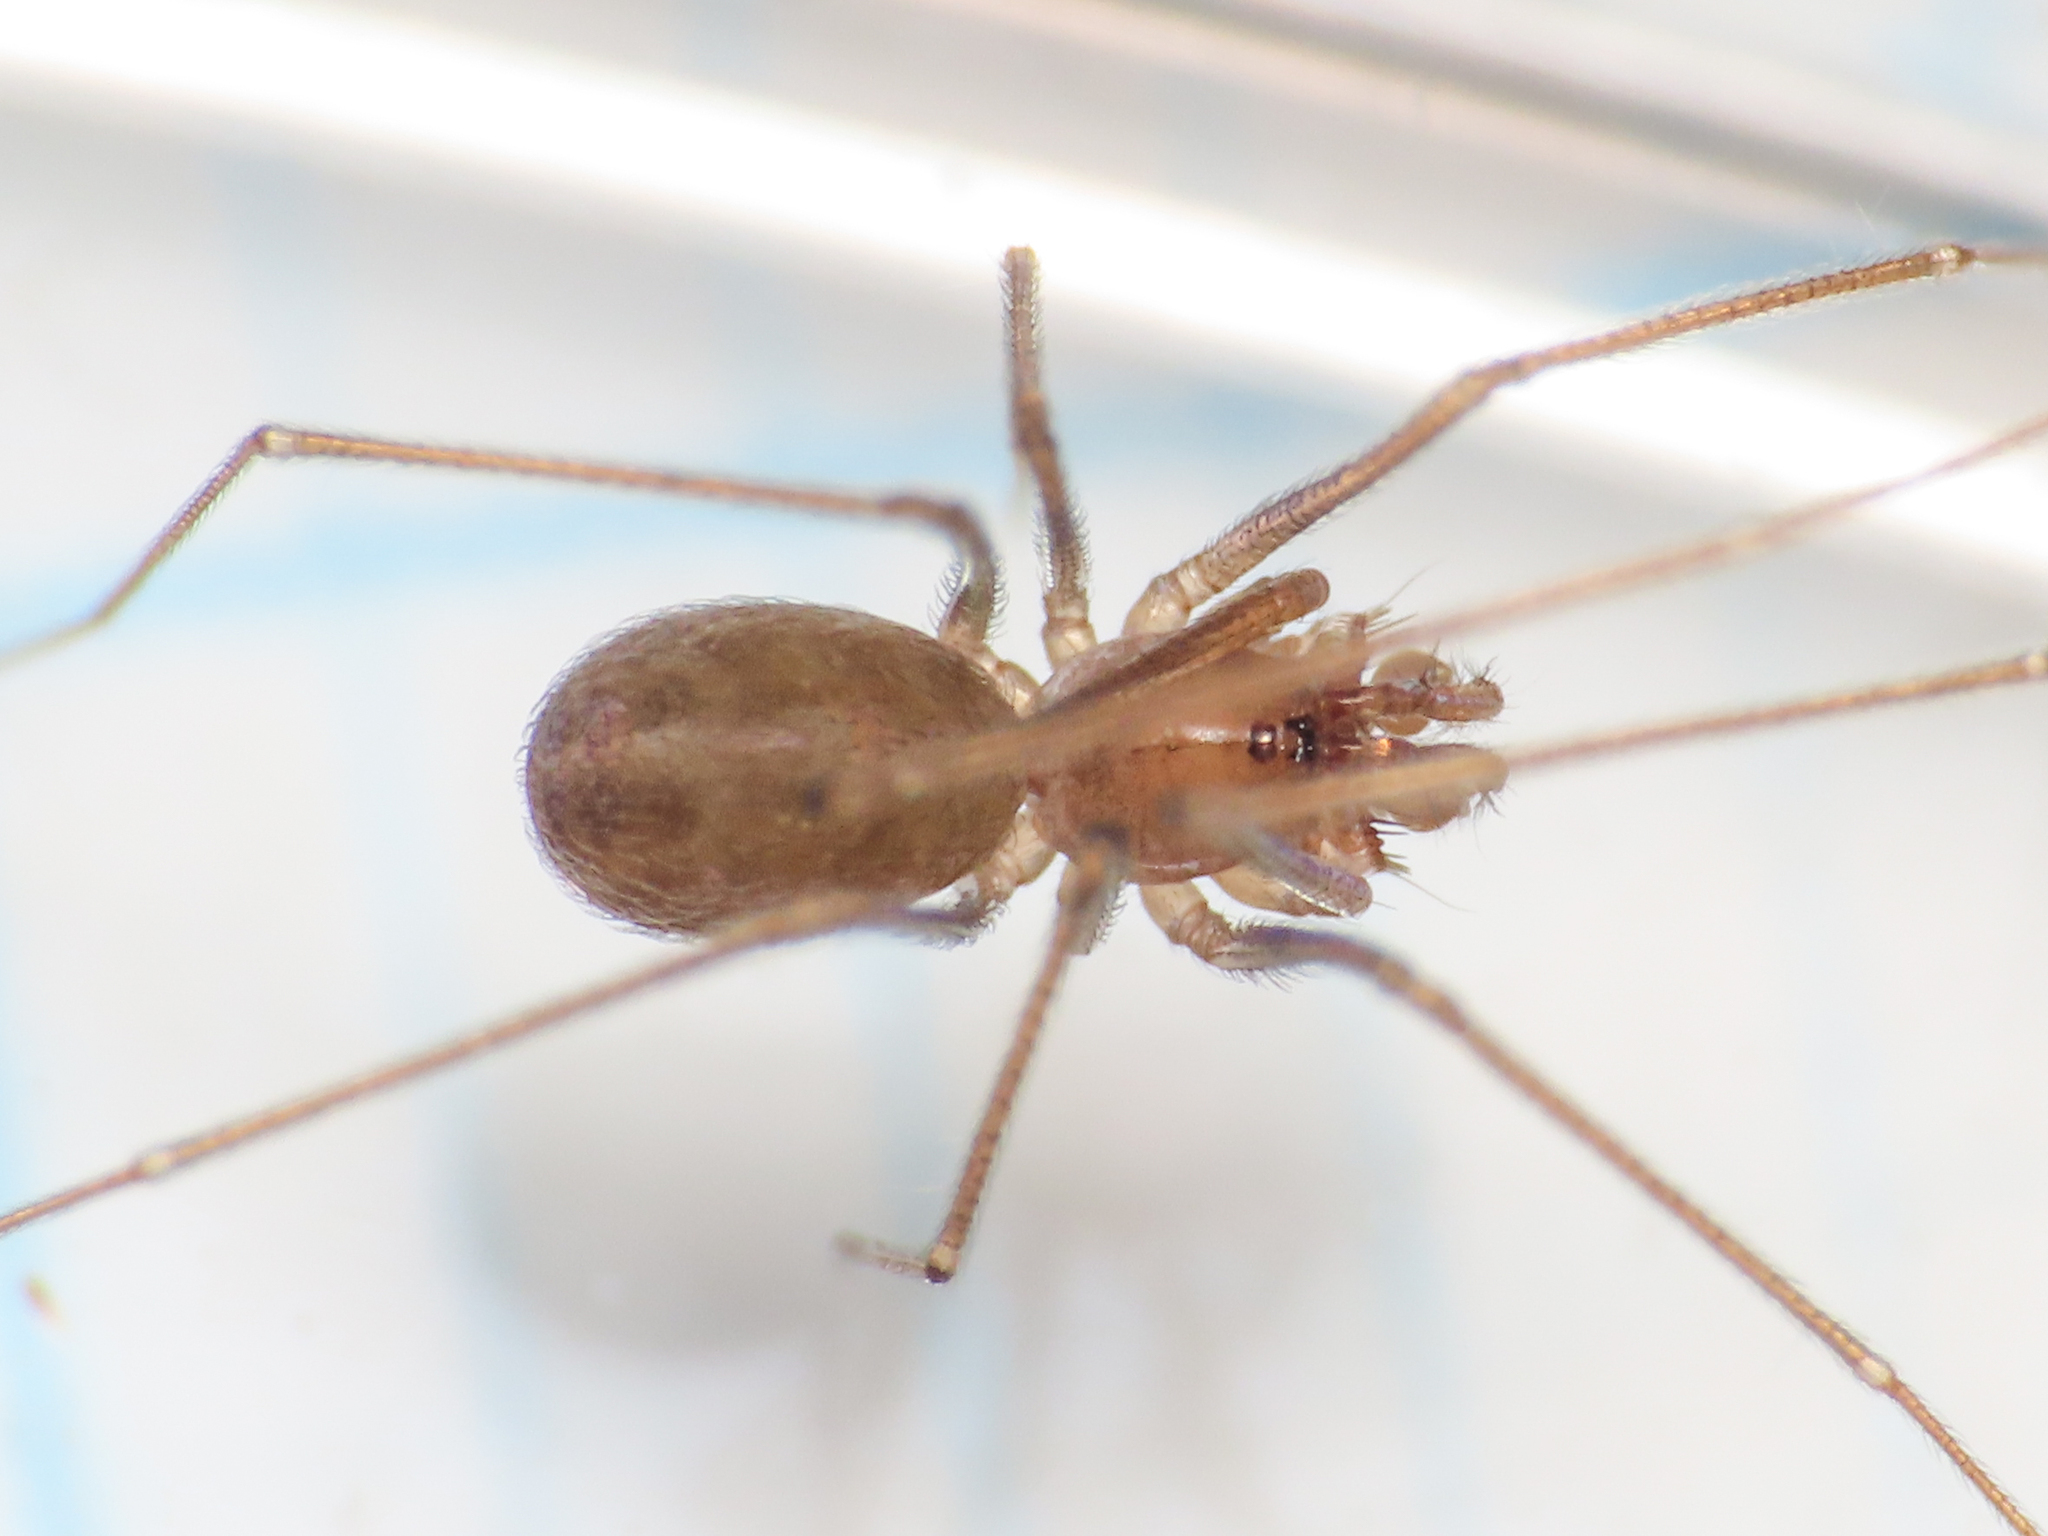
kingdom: Animalia
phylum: Arthropoda
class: Arachnida
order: Araneae
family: Leptonetidae
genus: Paraleptoneta
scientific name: Paraleptoneta spinimana
